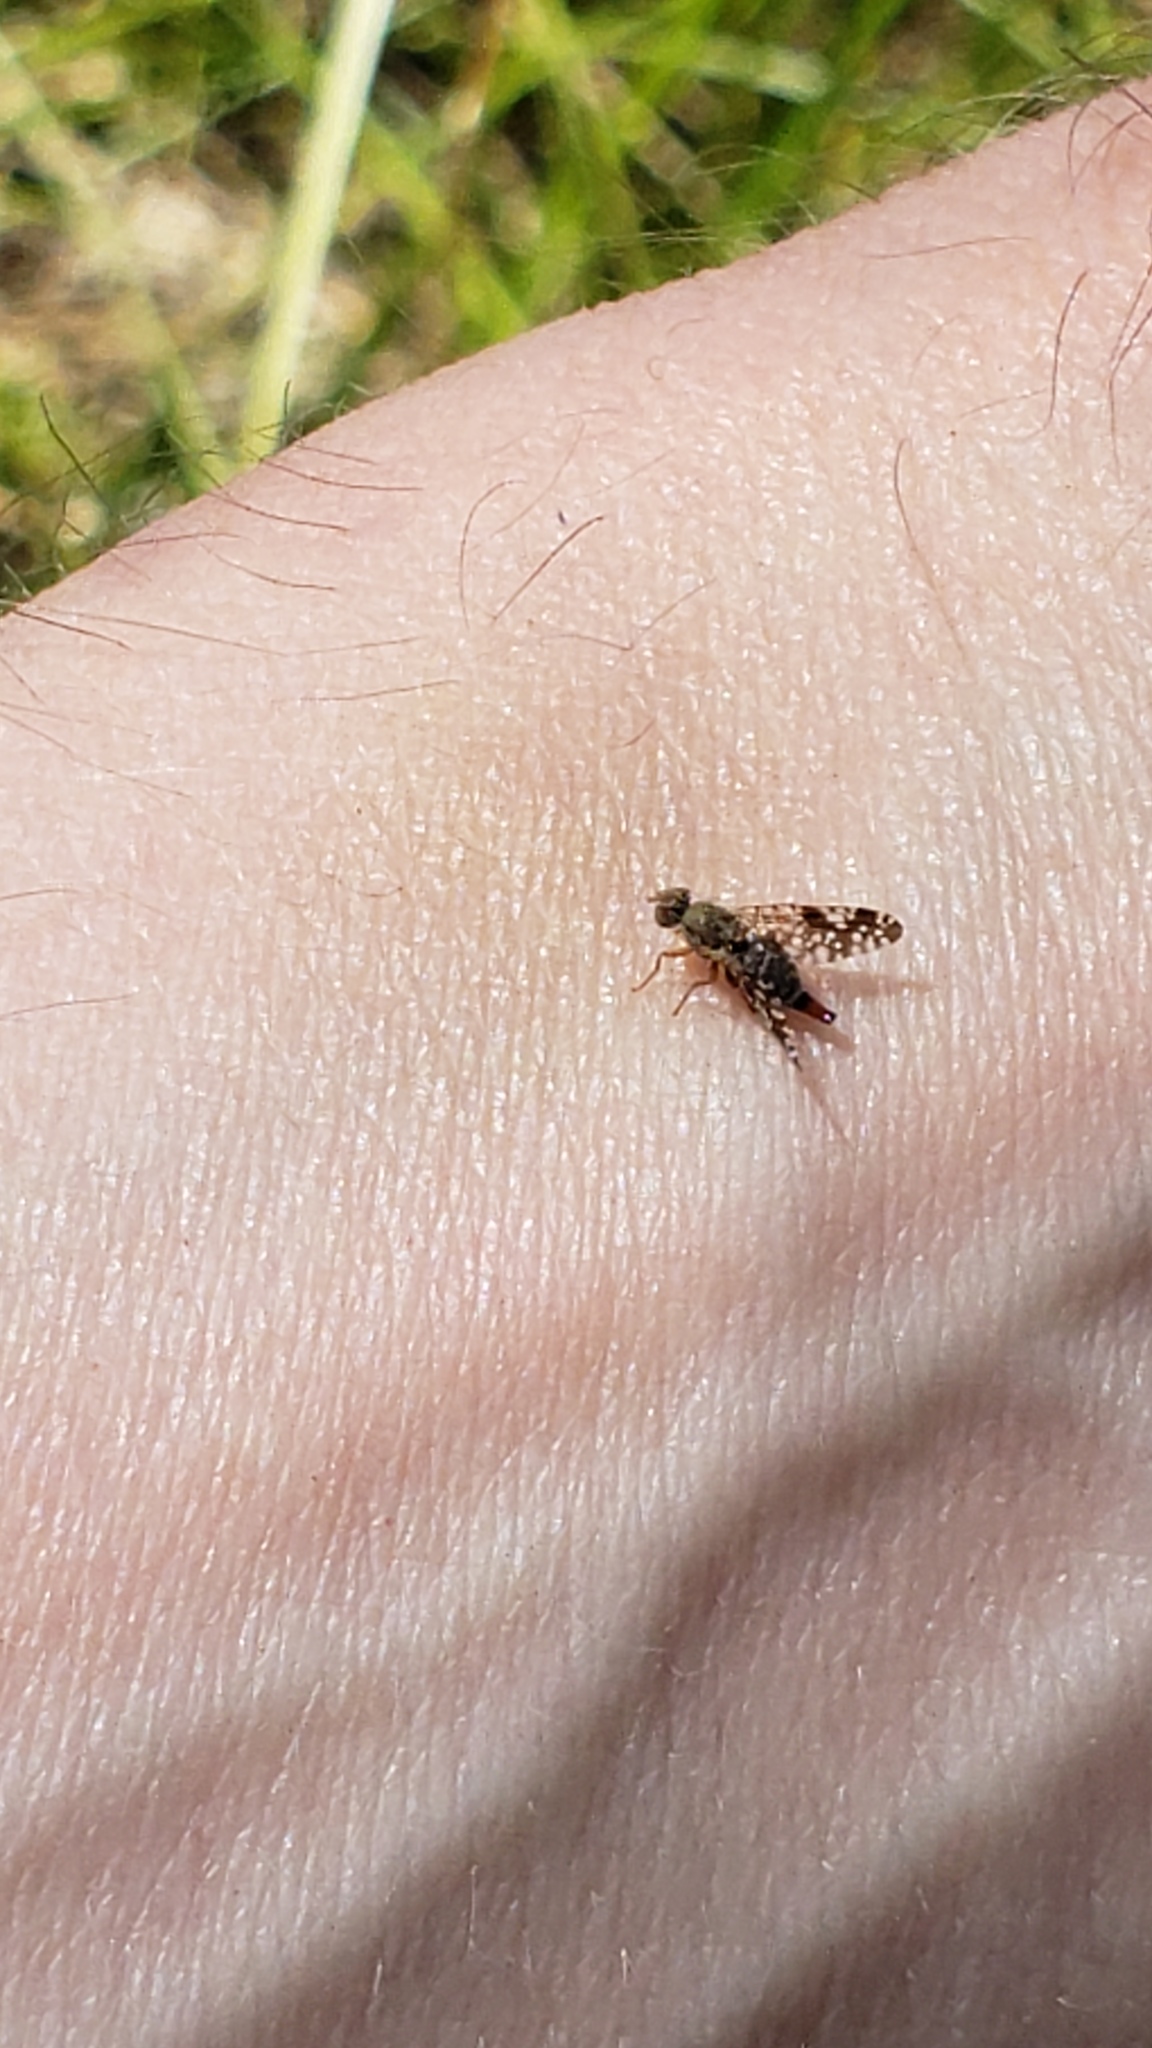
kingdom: Animalia
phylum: Arthropoda
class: Insecta
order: Diptera
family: Tephritidae
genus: Neotephritis
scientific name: Neotephritis finalis
